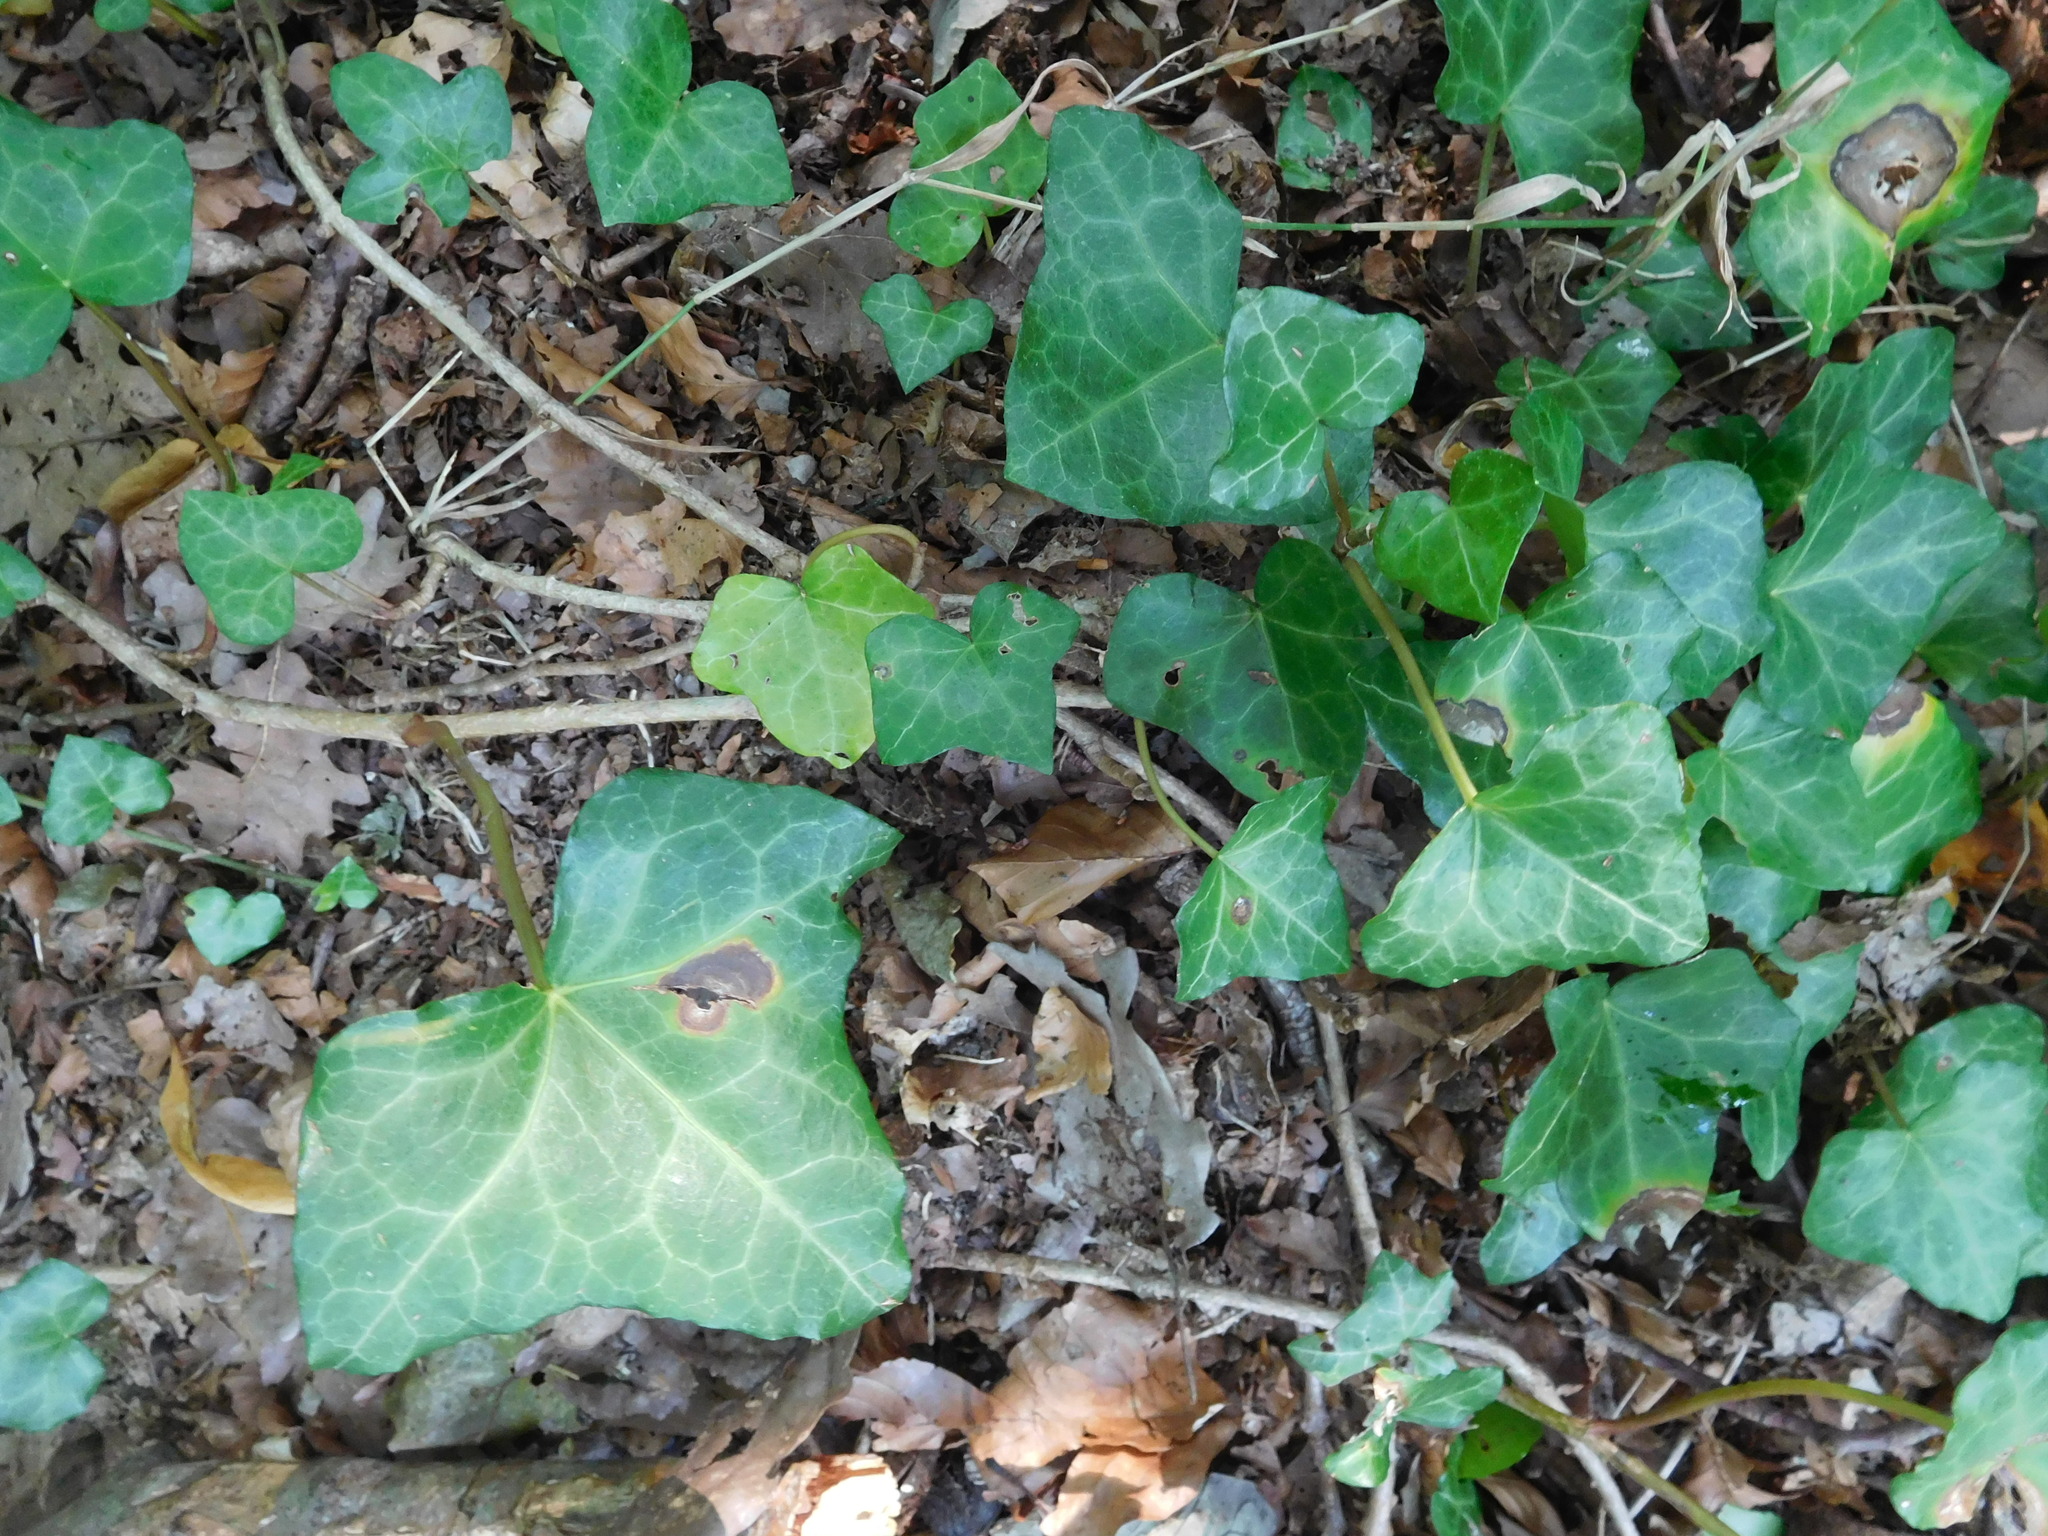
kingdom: Plantae
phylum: Tracheophyta
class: Magnoliopsida
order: Apiales
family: Araliaceae
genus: Hedera
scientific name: Hedera helix
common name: Ivy
